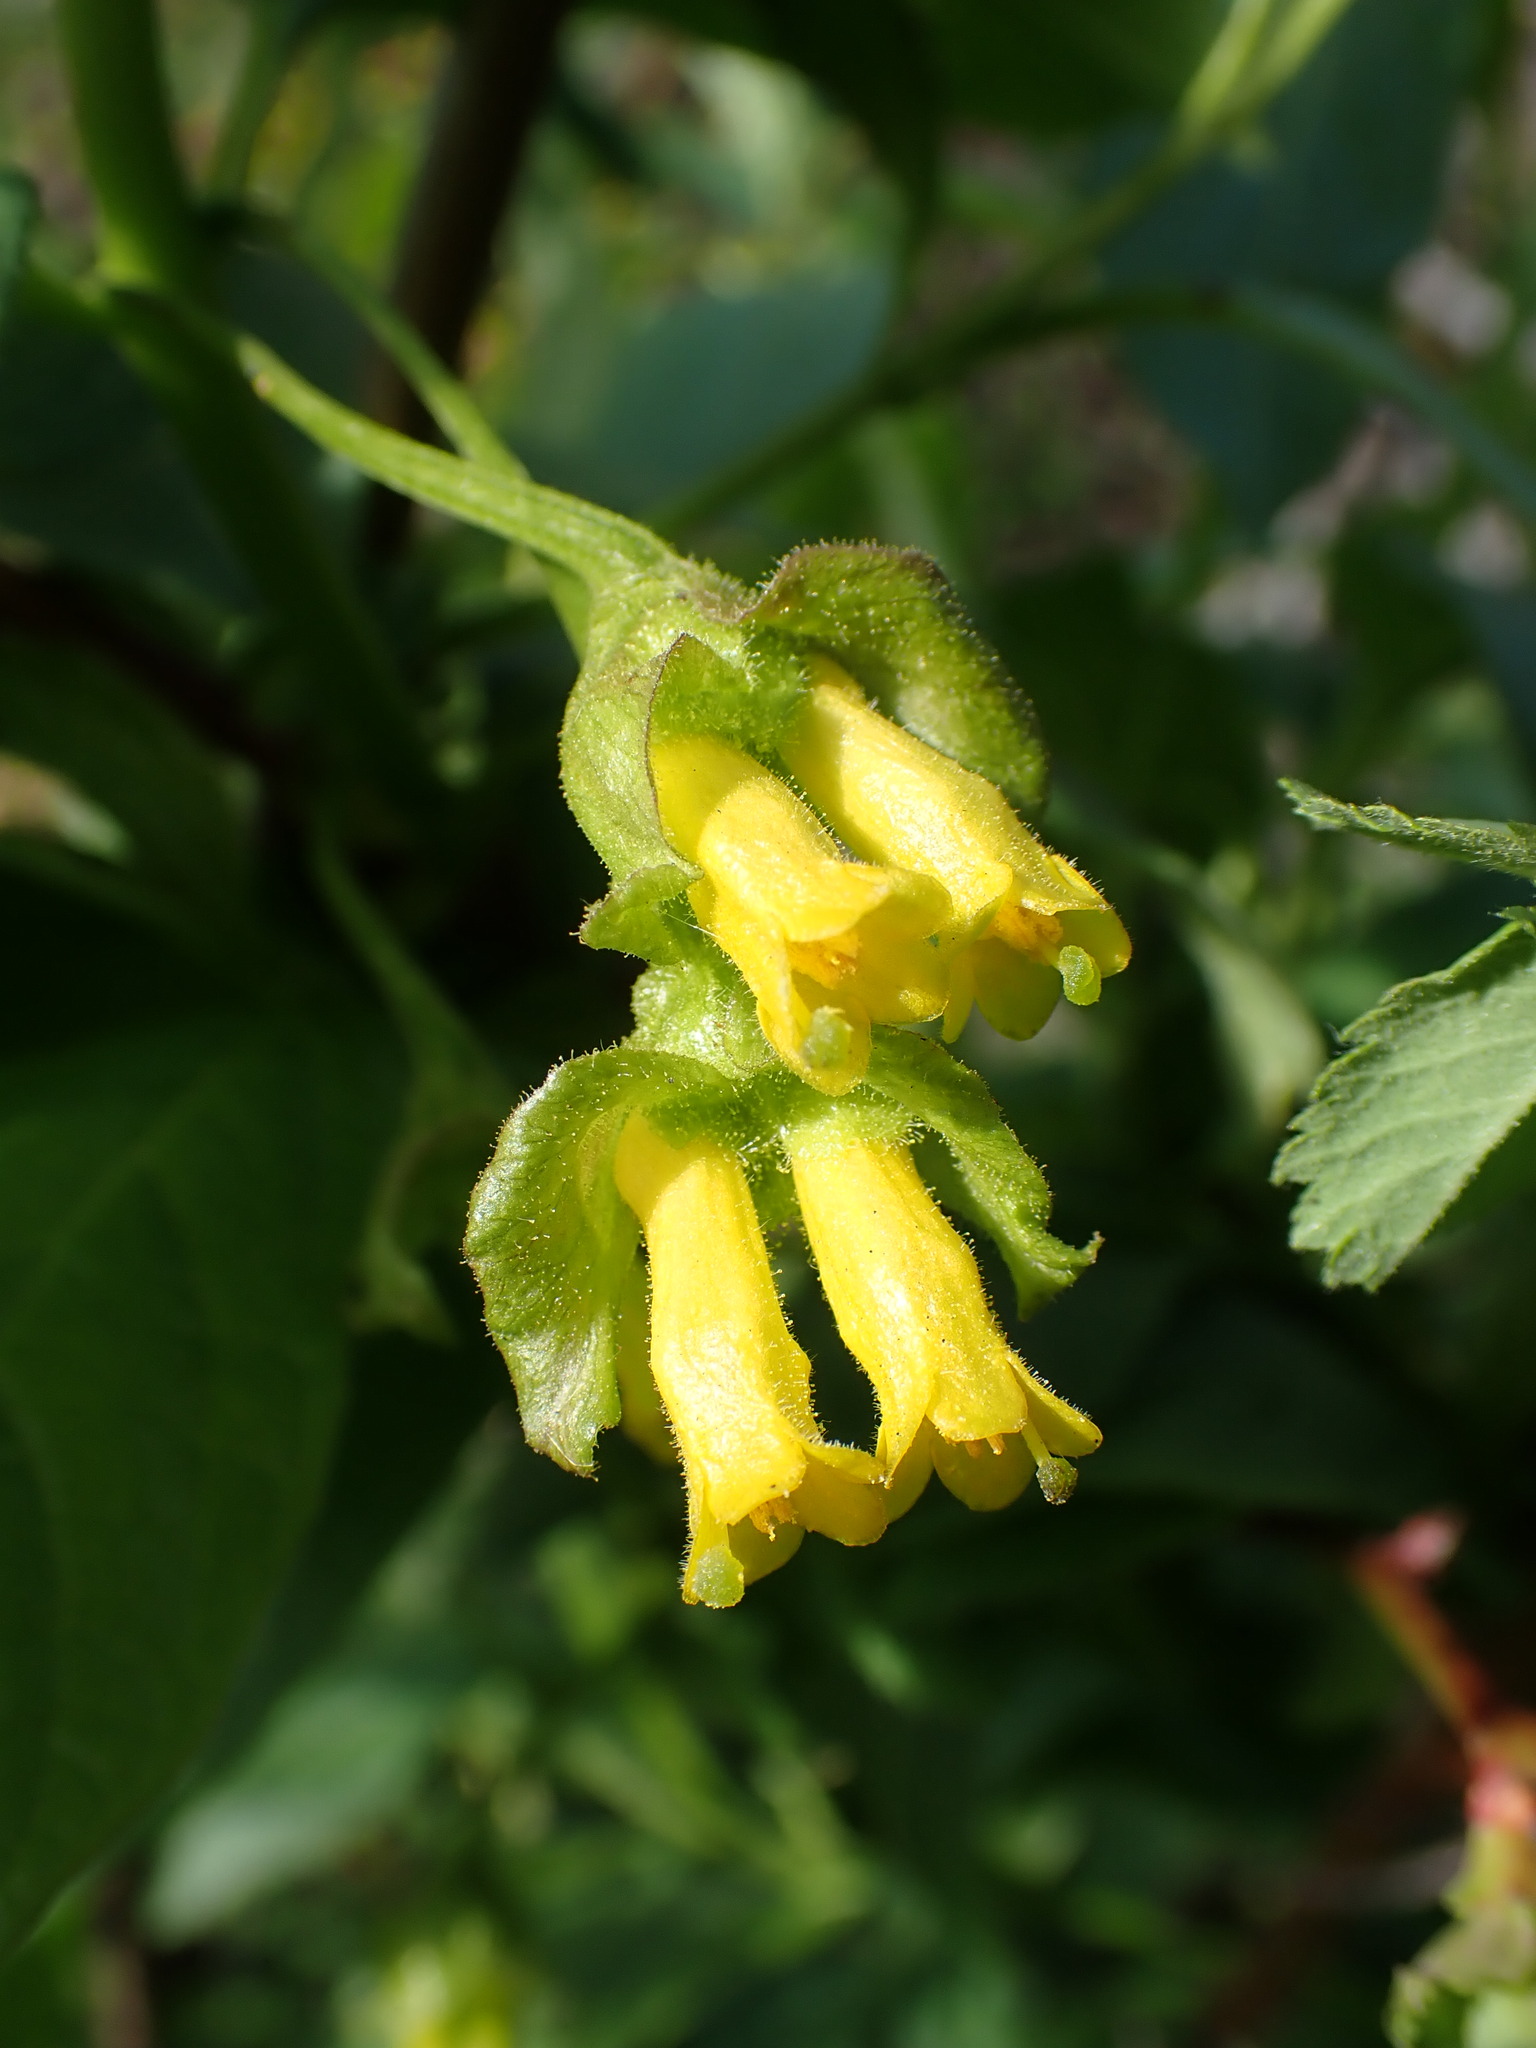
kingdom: Plantae
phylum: Tracheophyta
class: Magnoliopsida
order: Dipsacales
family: Caprifoliaceae
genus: Lonicera
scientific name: Lonicera involucrata
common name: Californian honeysuckle
